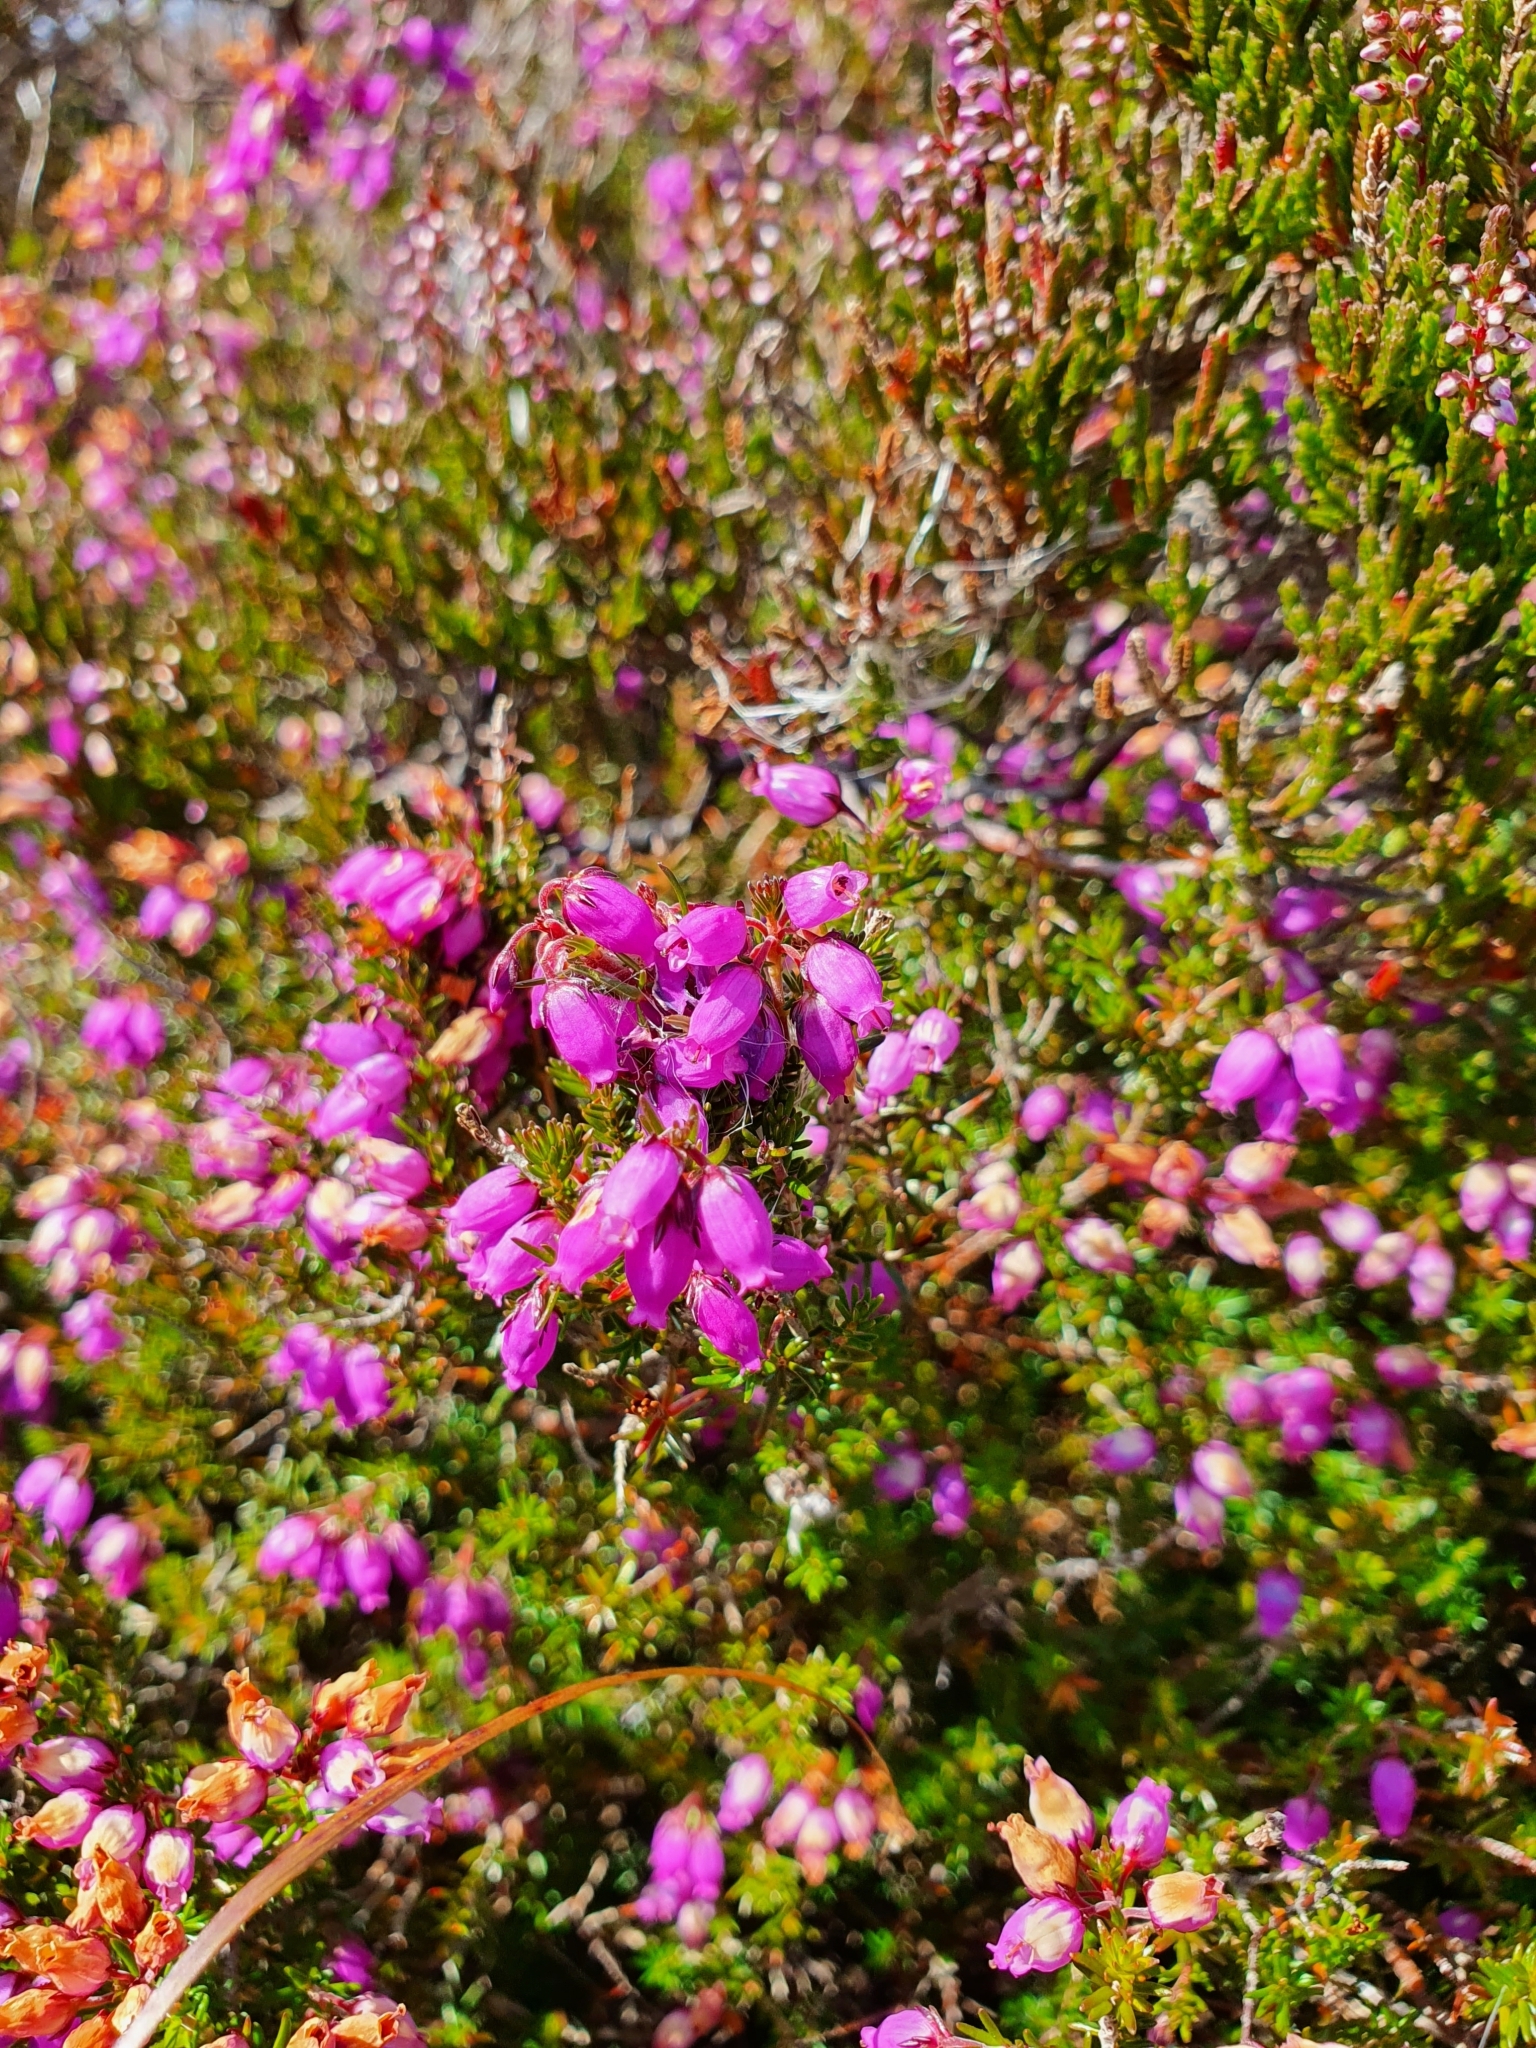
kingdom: Plantae
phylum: Tracheophyta
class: Magnoliopsida
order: Ericales
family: Ericaceae
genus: Erica
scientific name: Erica cinerea
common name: Bell heather
